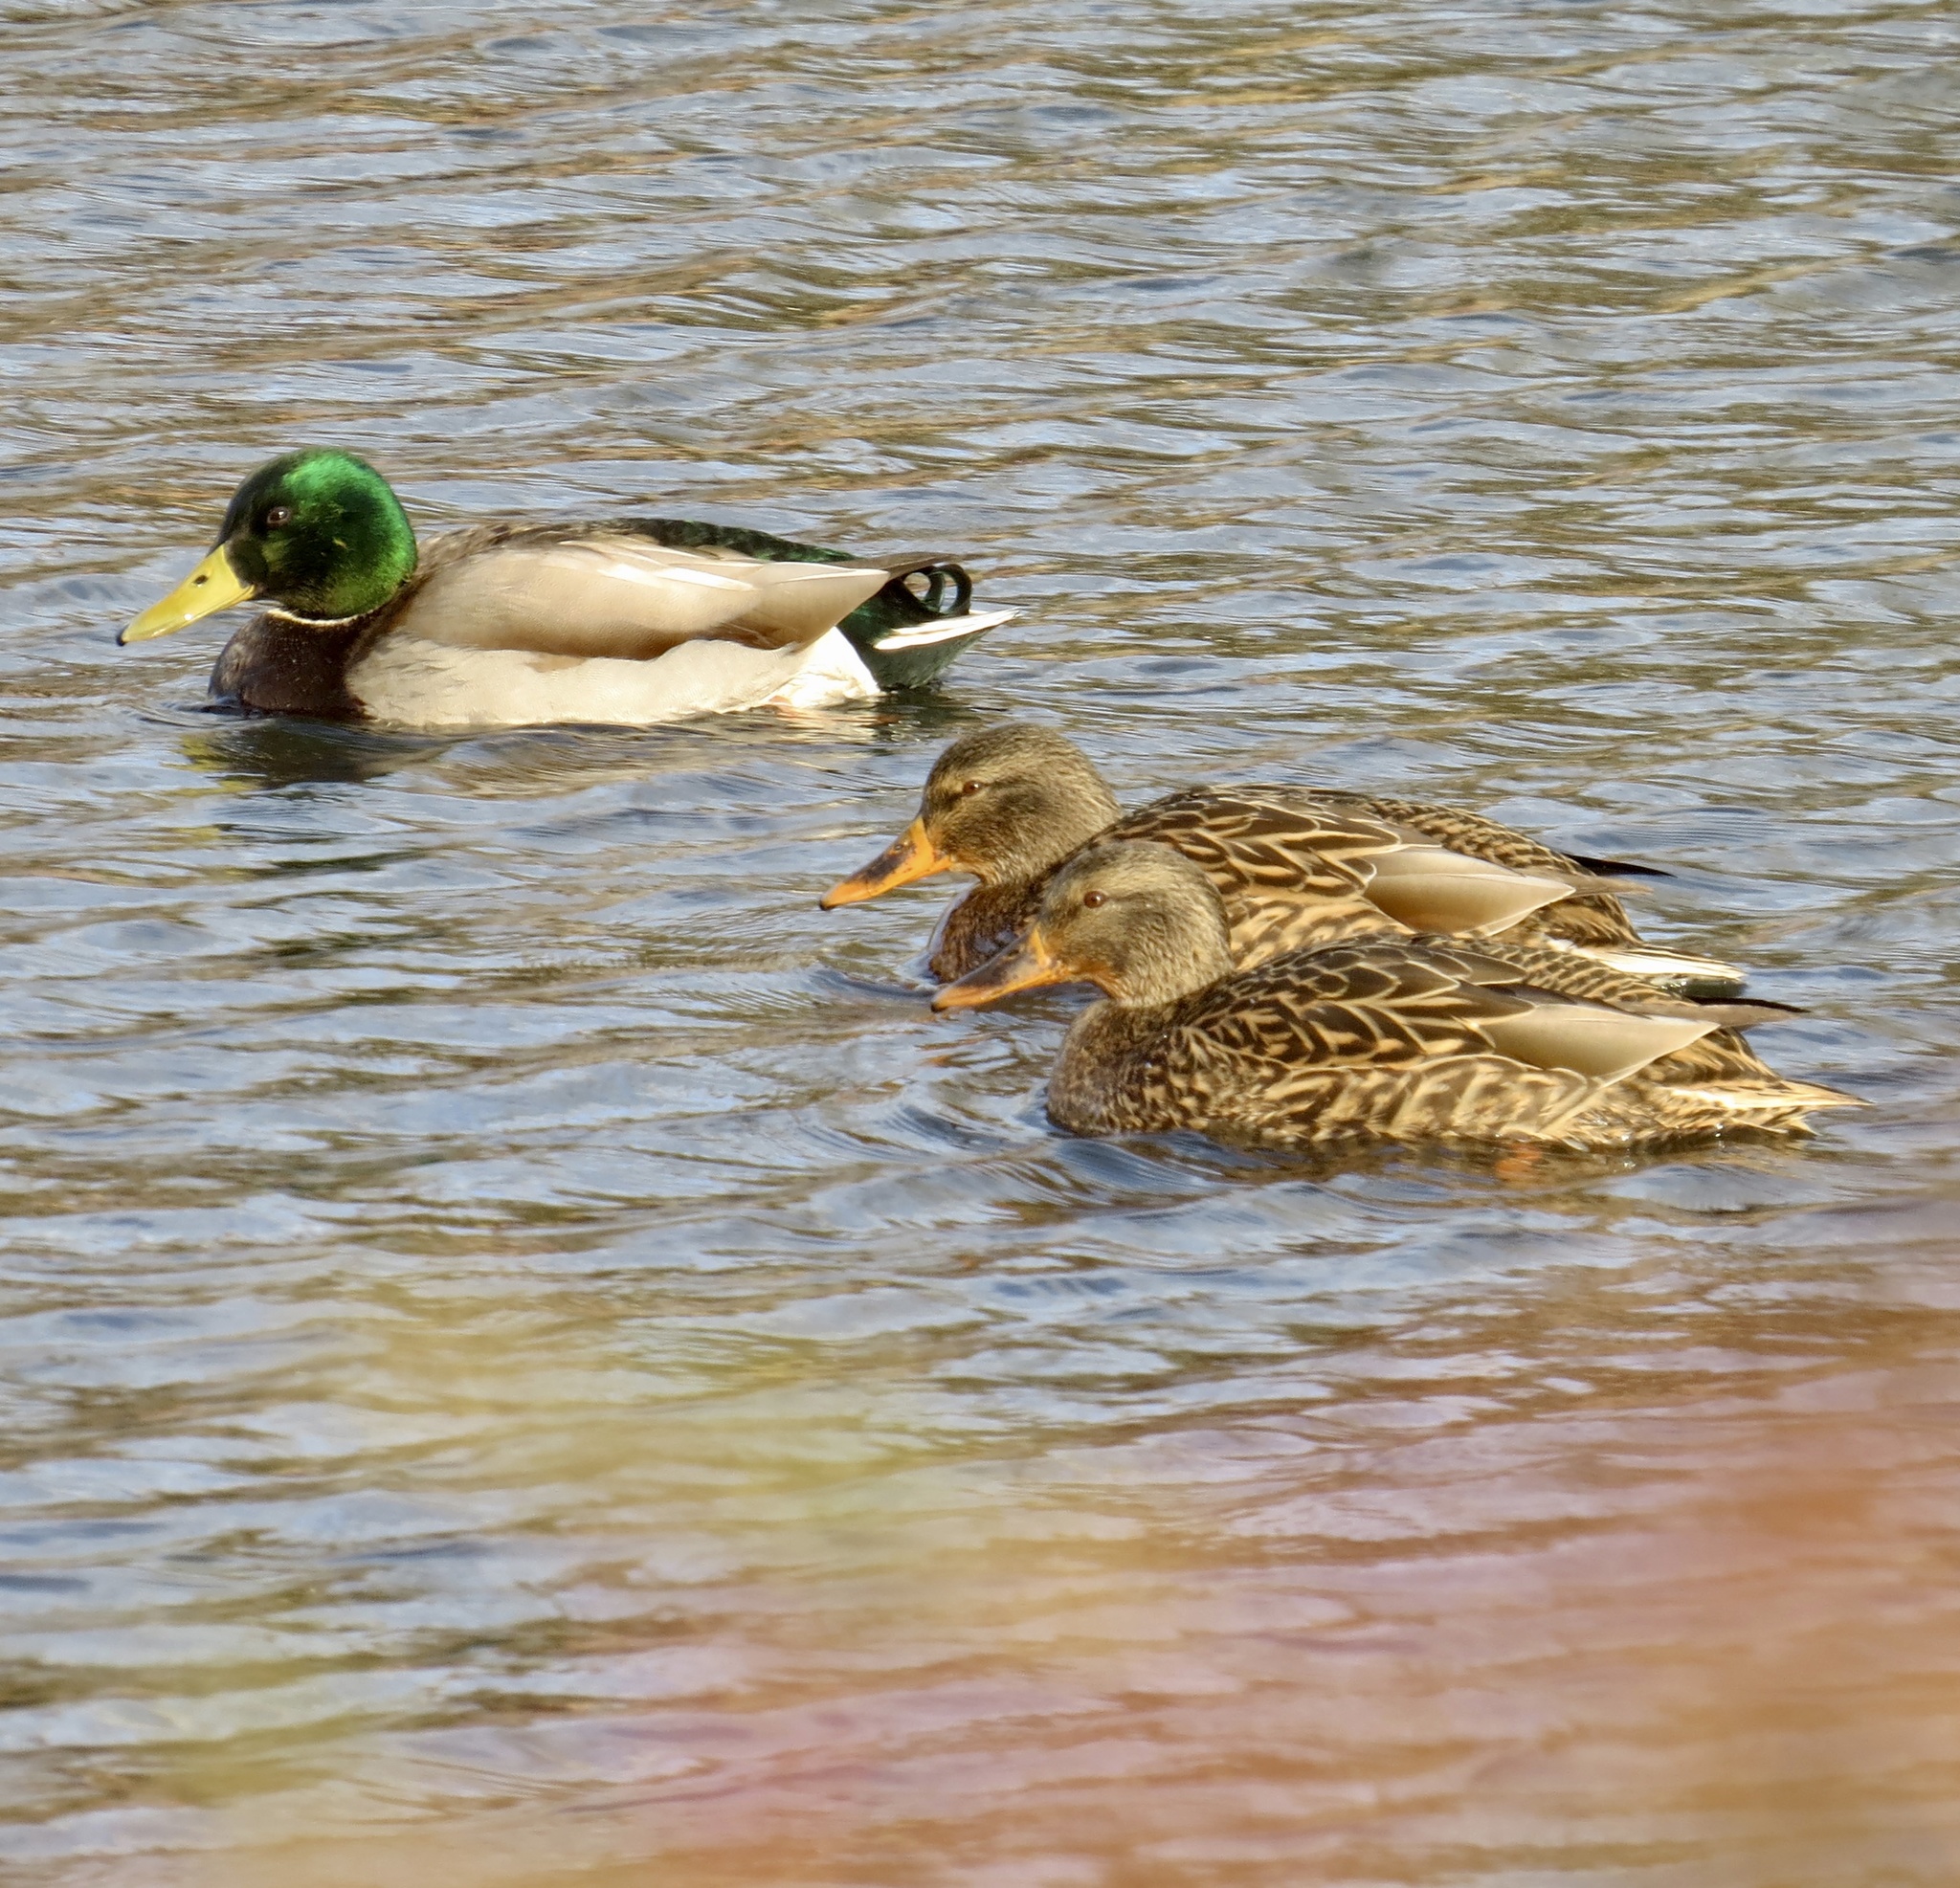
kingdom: Animalia
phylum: Chordata
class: Aves
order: Anseriformes
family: Anatidae
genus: Anas
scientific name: Anas platyrhynchos
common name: Mallard
